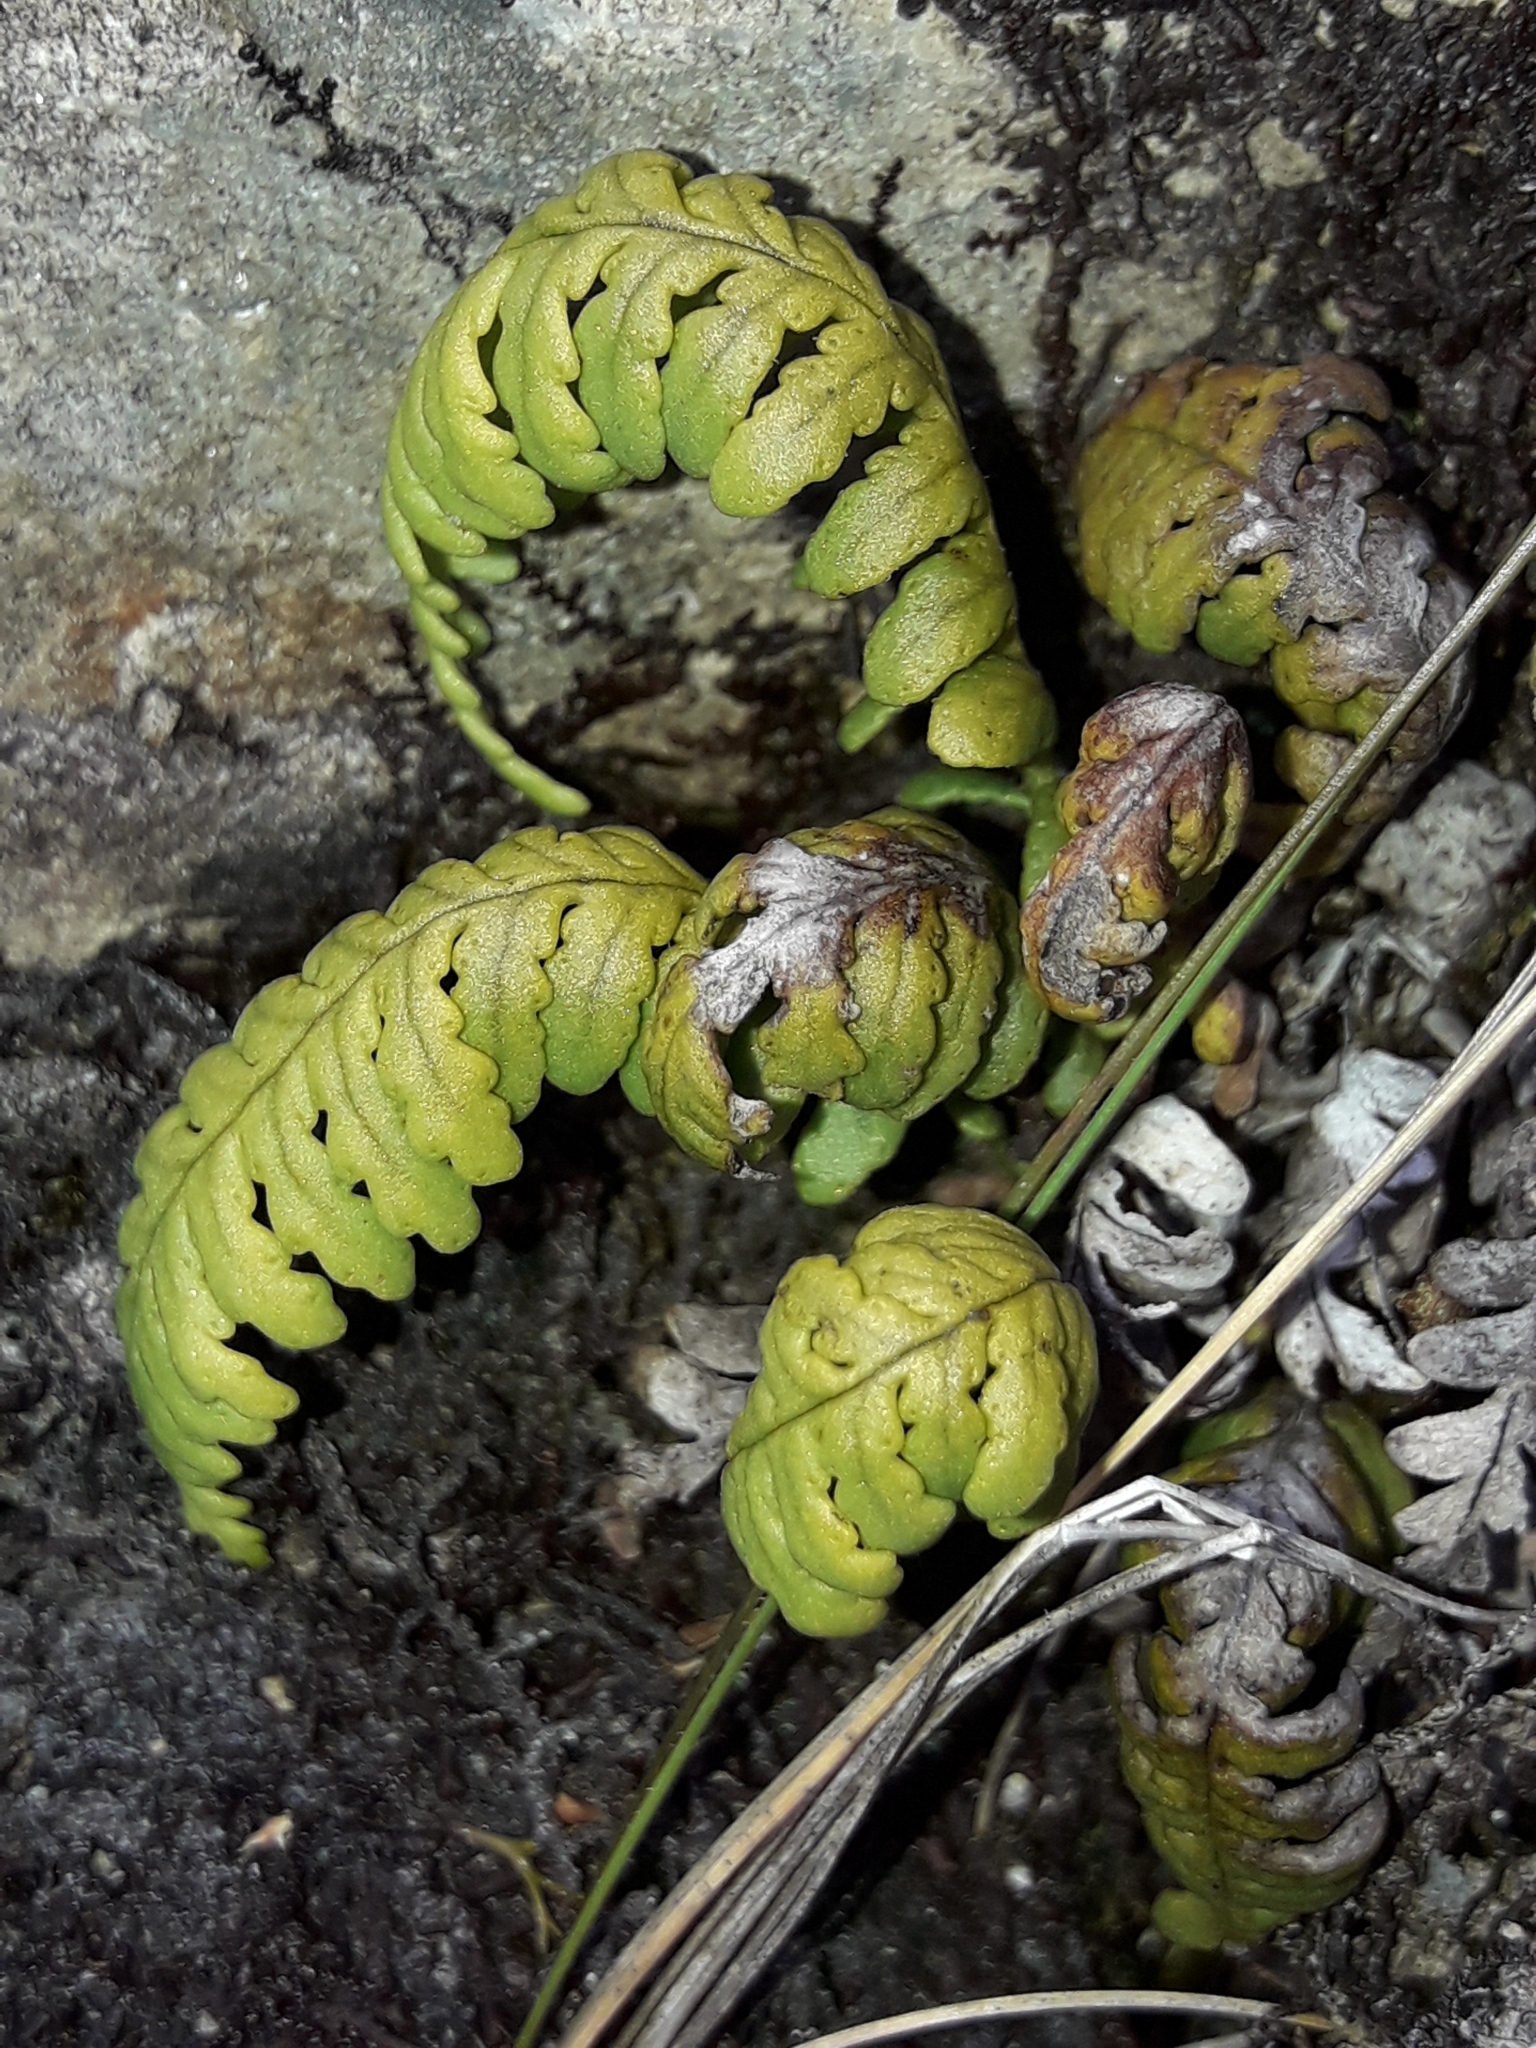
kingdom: Plantae
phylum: Tracheophyta
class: Polypodiopsida
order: Polypodiales
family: Polypodiaceae
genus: Notogrammitis
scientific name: Notogrammitis heterophylla
